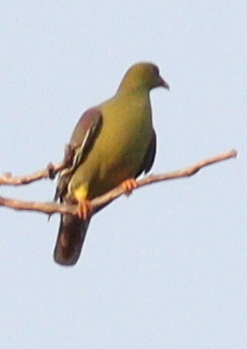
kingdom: Animalia
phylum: Chordata
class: Aves
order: Columbiformes
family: Columbidae
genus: Treron
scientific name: Treron calvus
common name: African green pigeon
